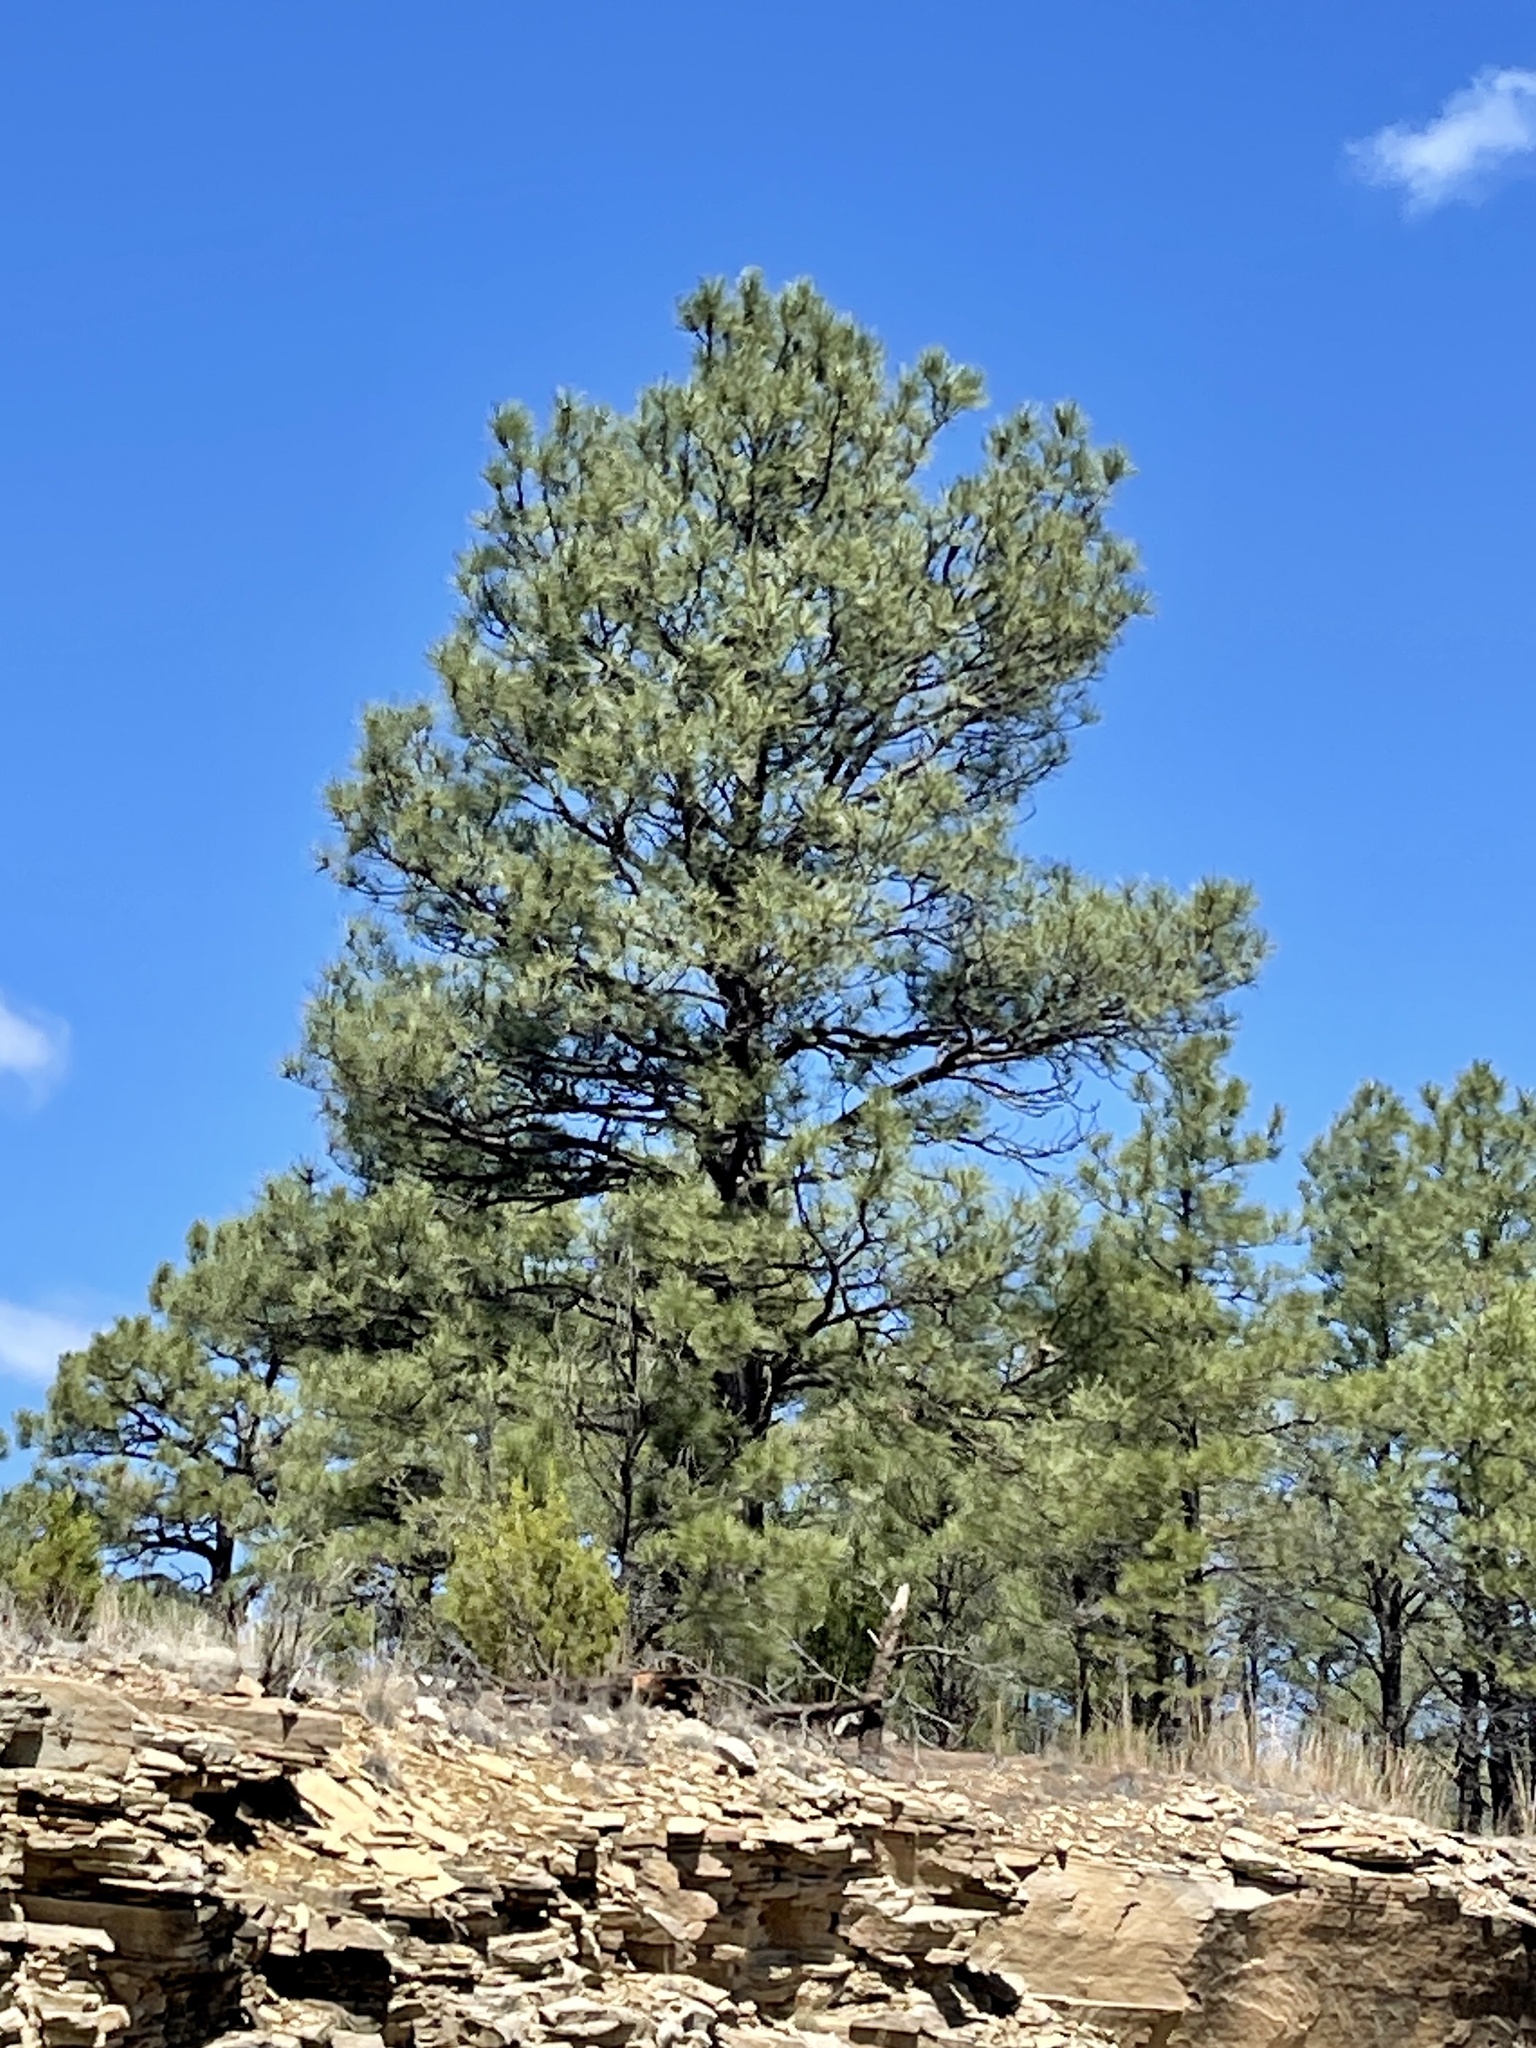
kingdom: Plantae
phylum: Tracheophyta
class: Pinopsida
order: Pinales
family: Pinaceae
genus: Pinus
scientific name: Pinus ponderosa
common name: Western yellow-pine
